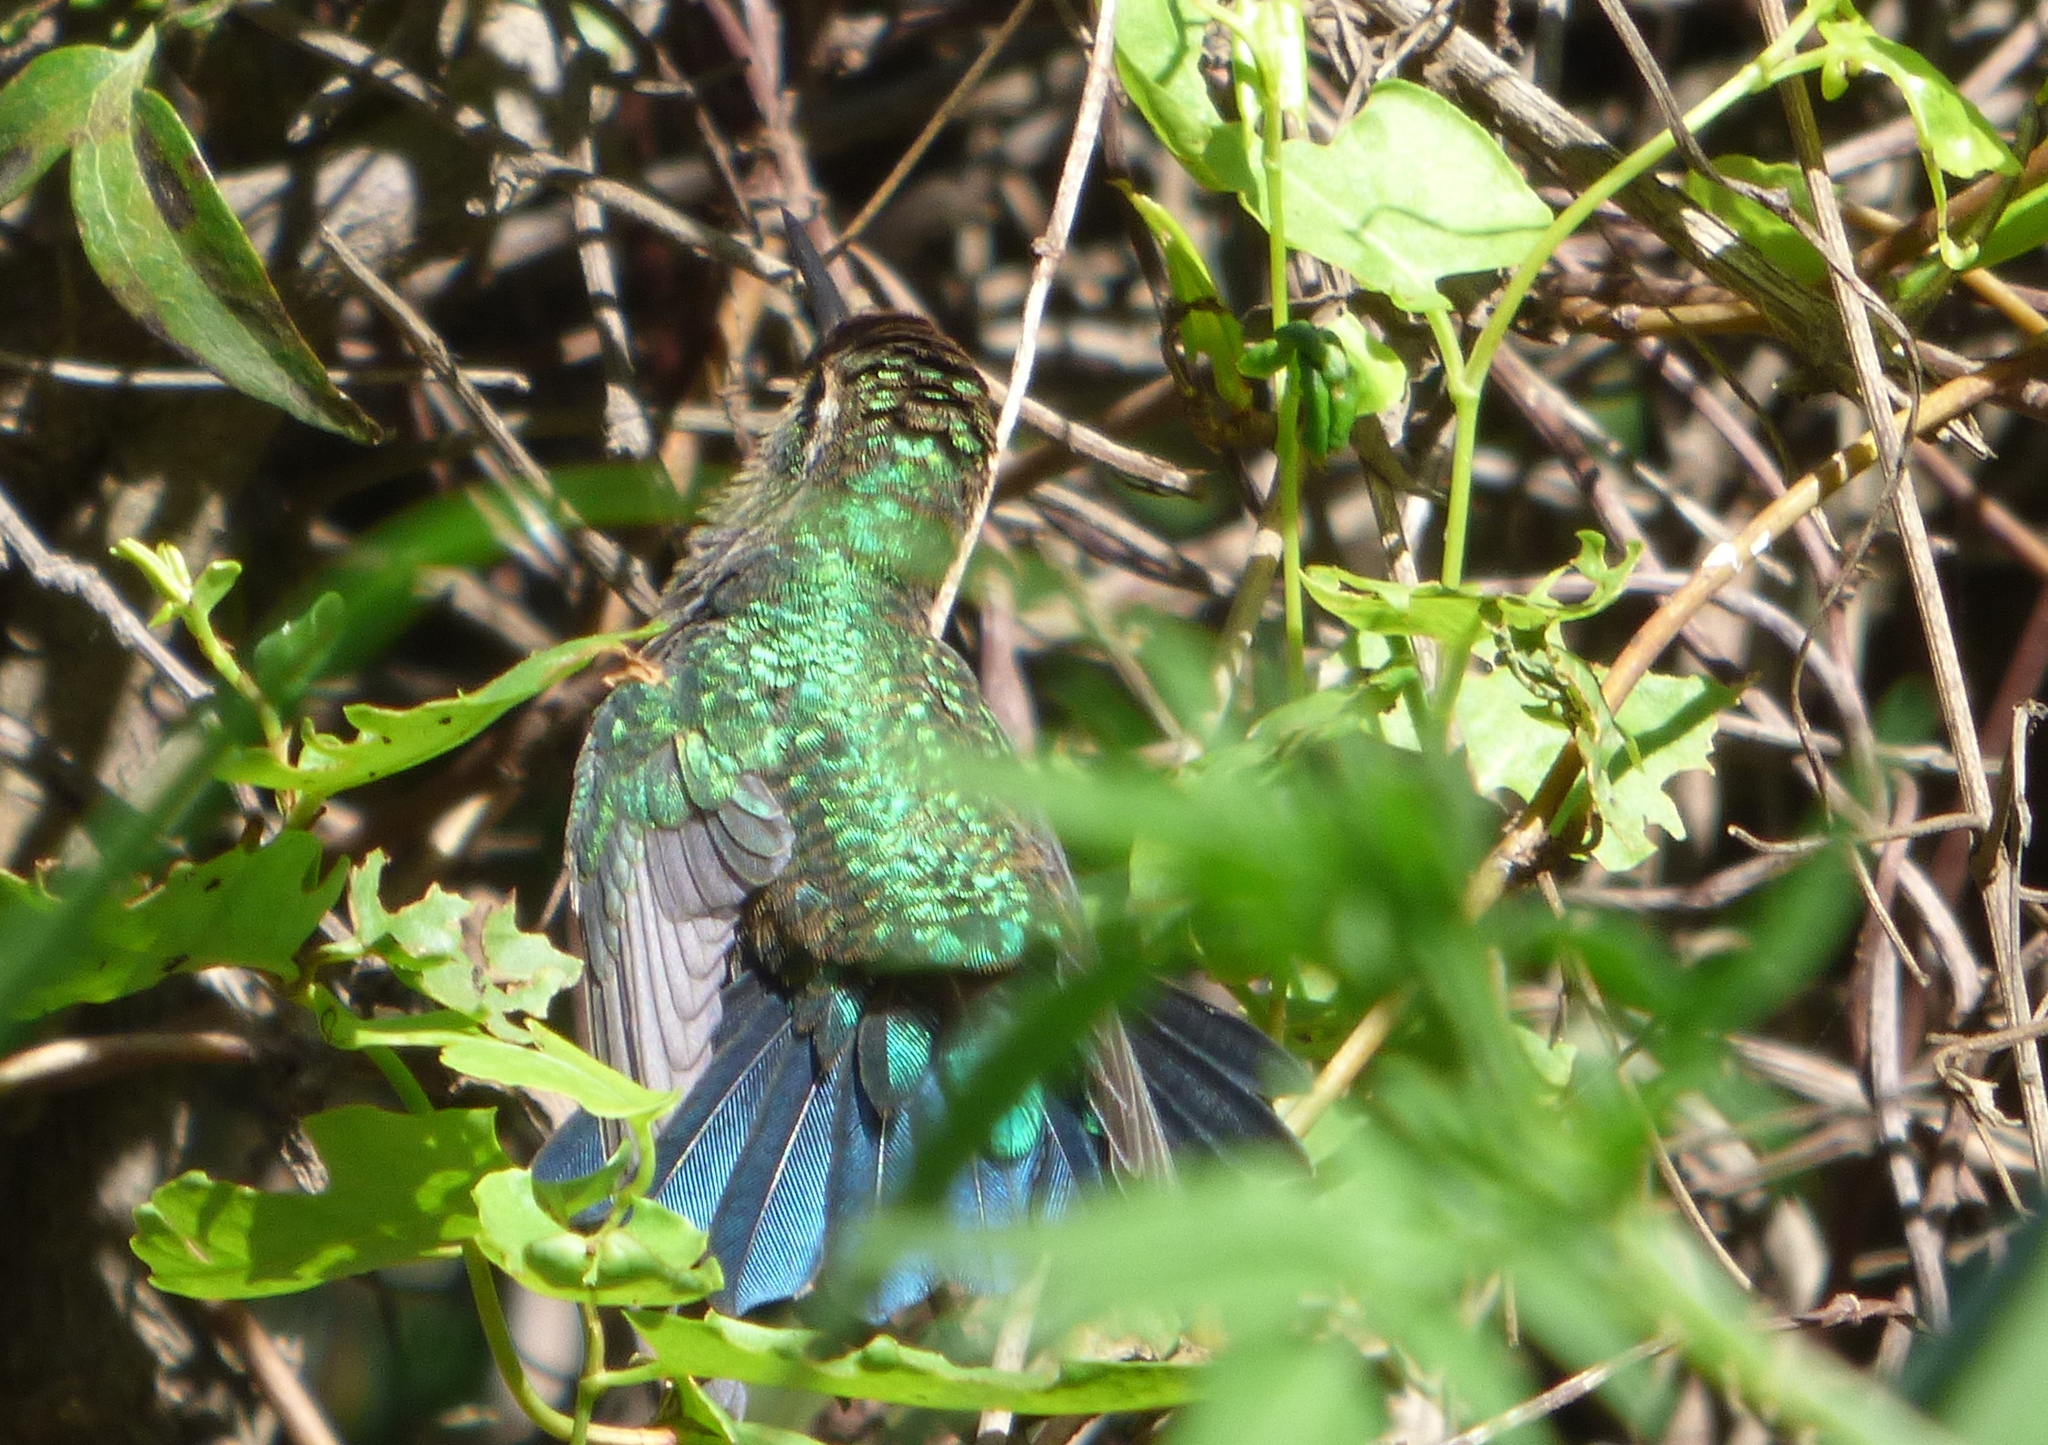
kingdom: Animalia
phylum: Chordata
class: Aves
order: Apodiformes
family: Trochilidae
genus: Chlorostilbon
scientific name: Chlorostilbon lucidus
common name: Glittering-bellied emerald
